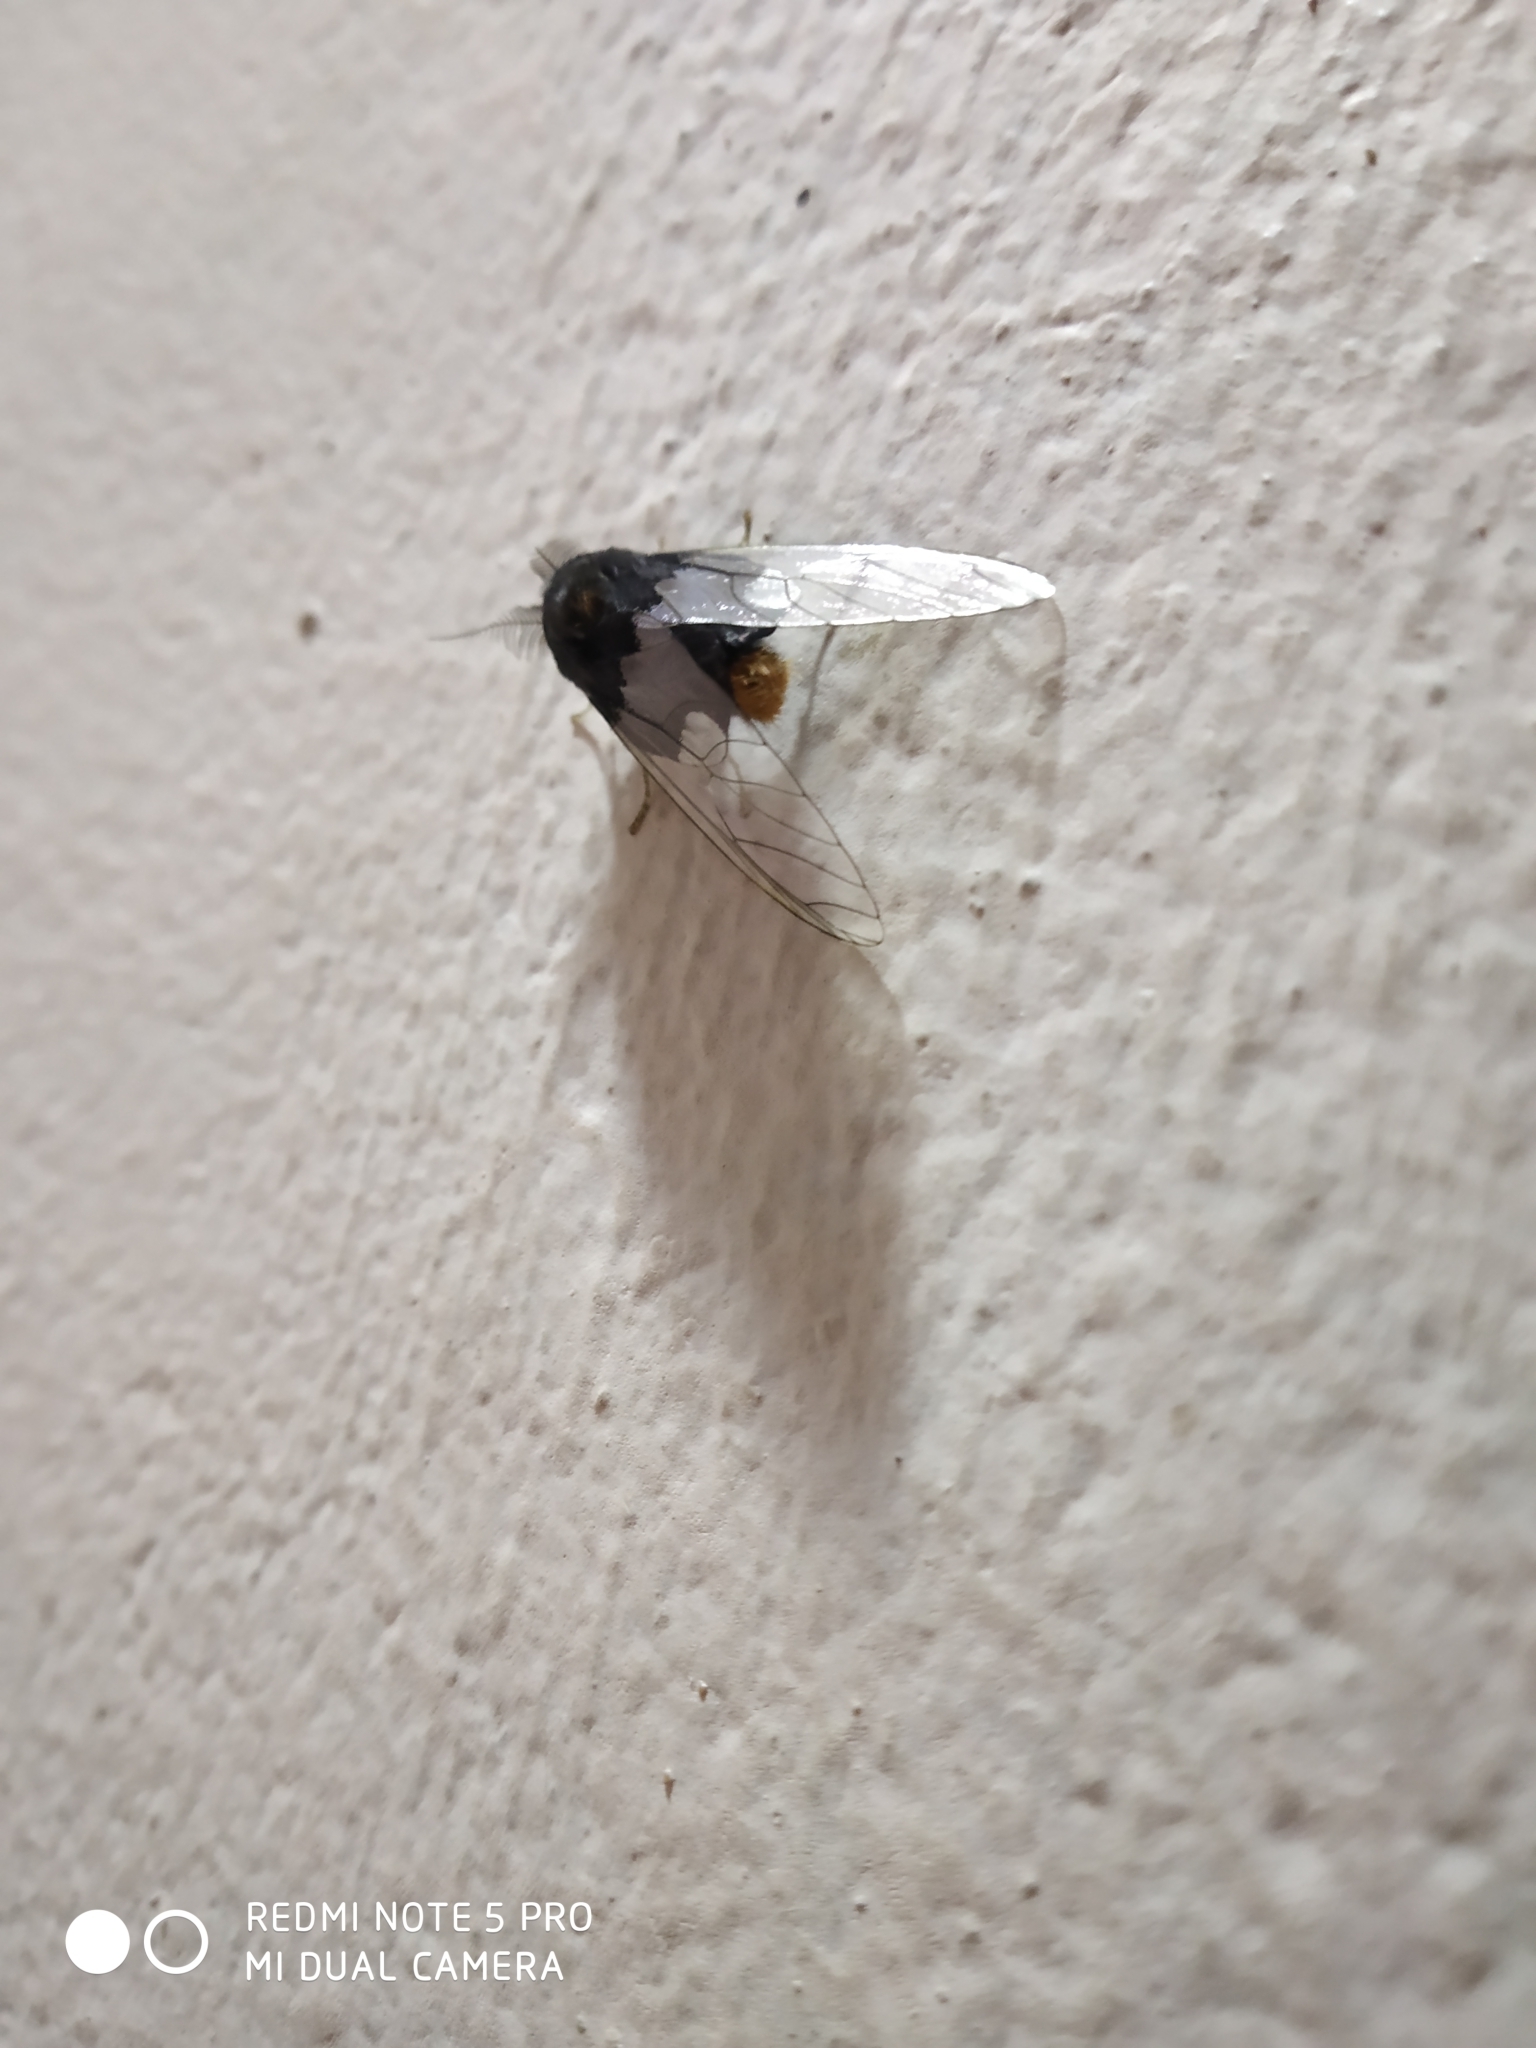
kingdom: Animalia
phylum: Arthropoda
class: Insecta
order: Lepidoptera
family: Erebidae
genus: Perina
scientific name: Perina nuda
